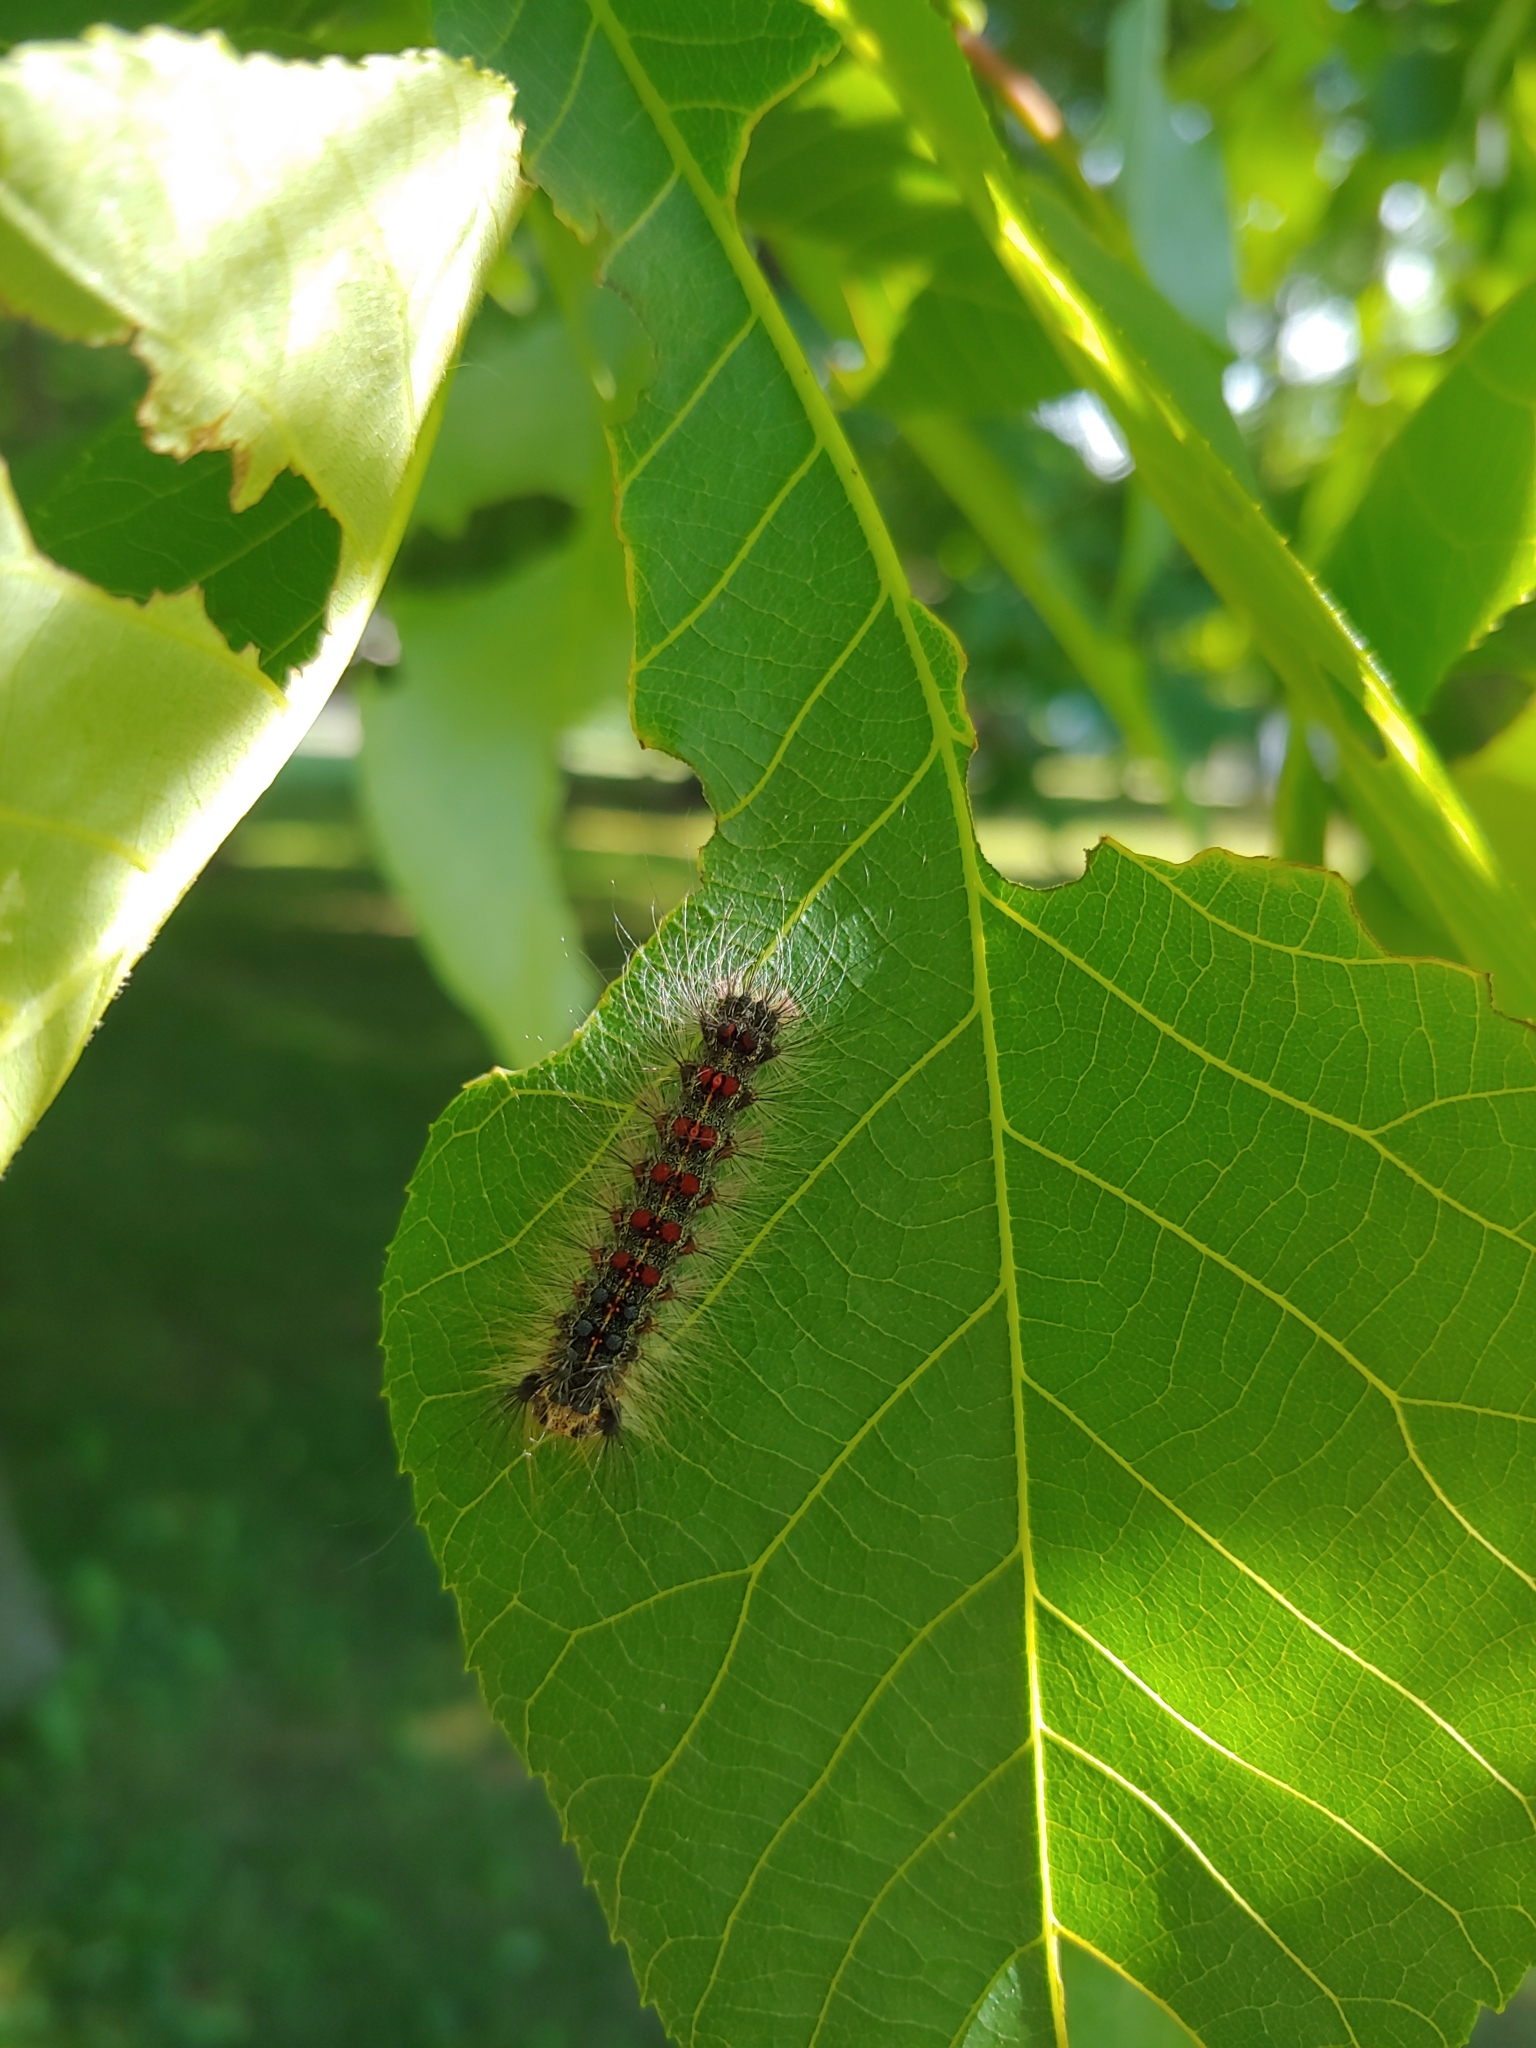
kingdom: Animalia
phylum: Arthropoda
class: Insecta
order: Lepidoptera
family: Erebidae
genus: Lymantria
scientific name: Lymantria dispar
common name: Gypsy moth
